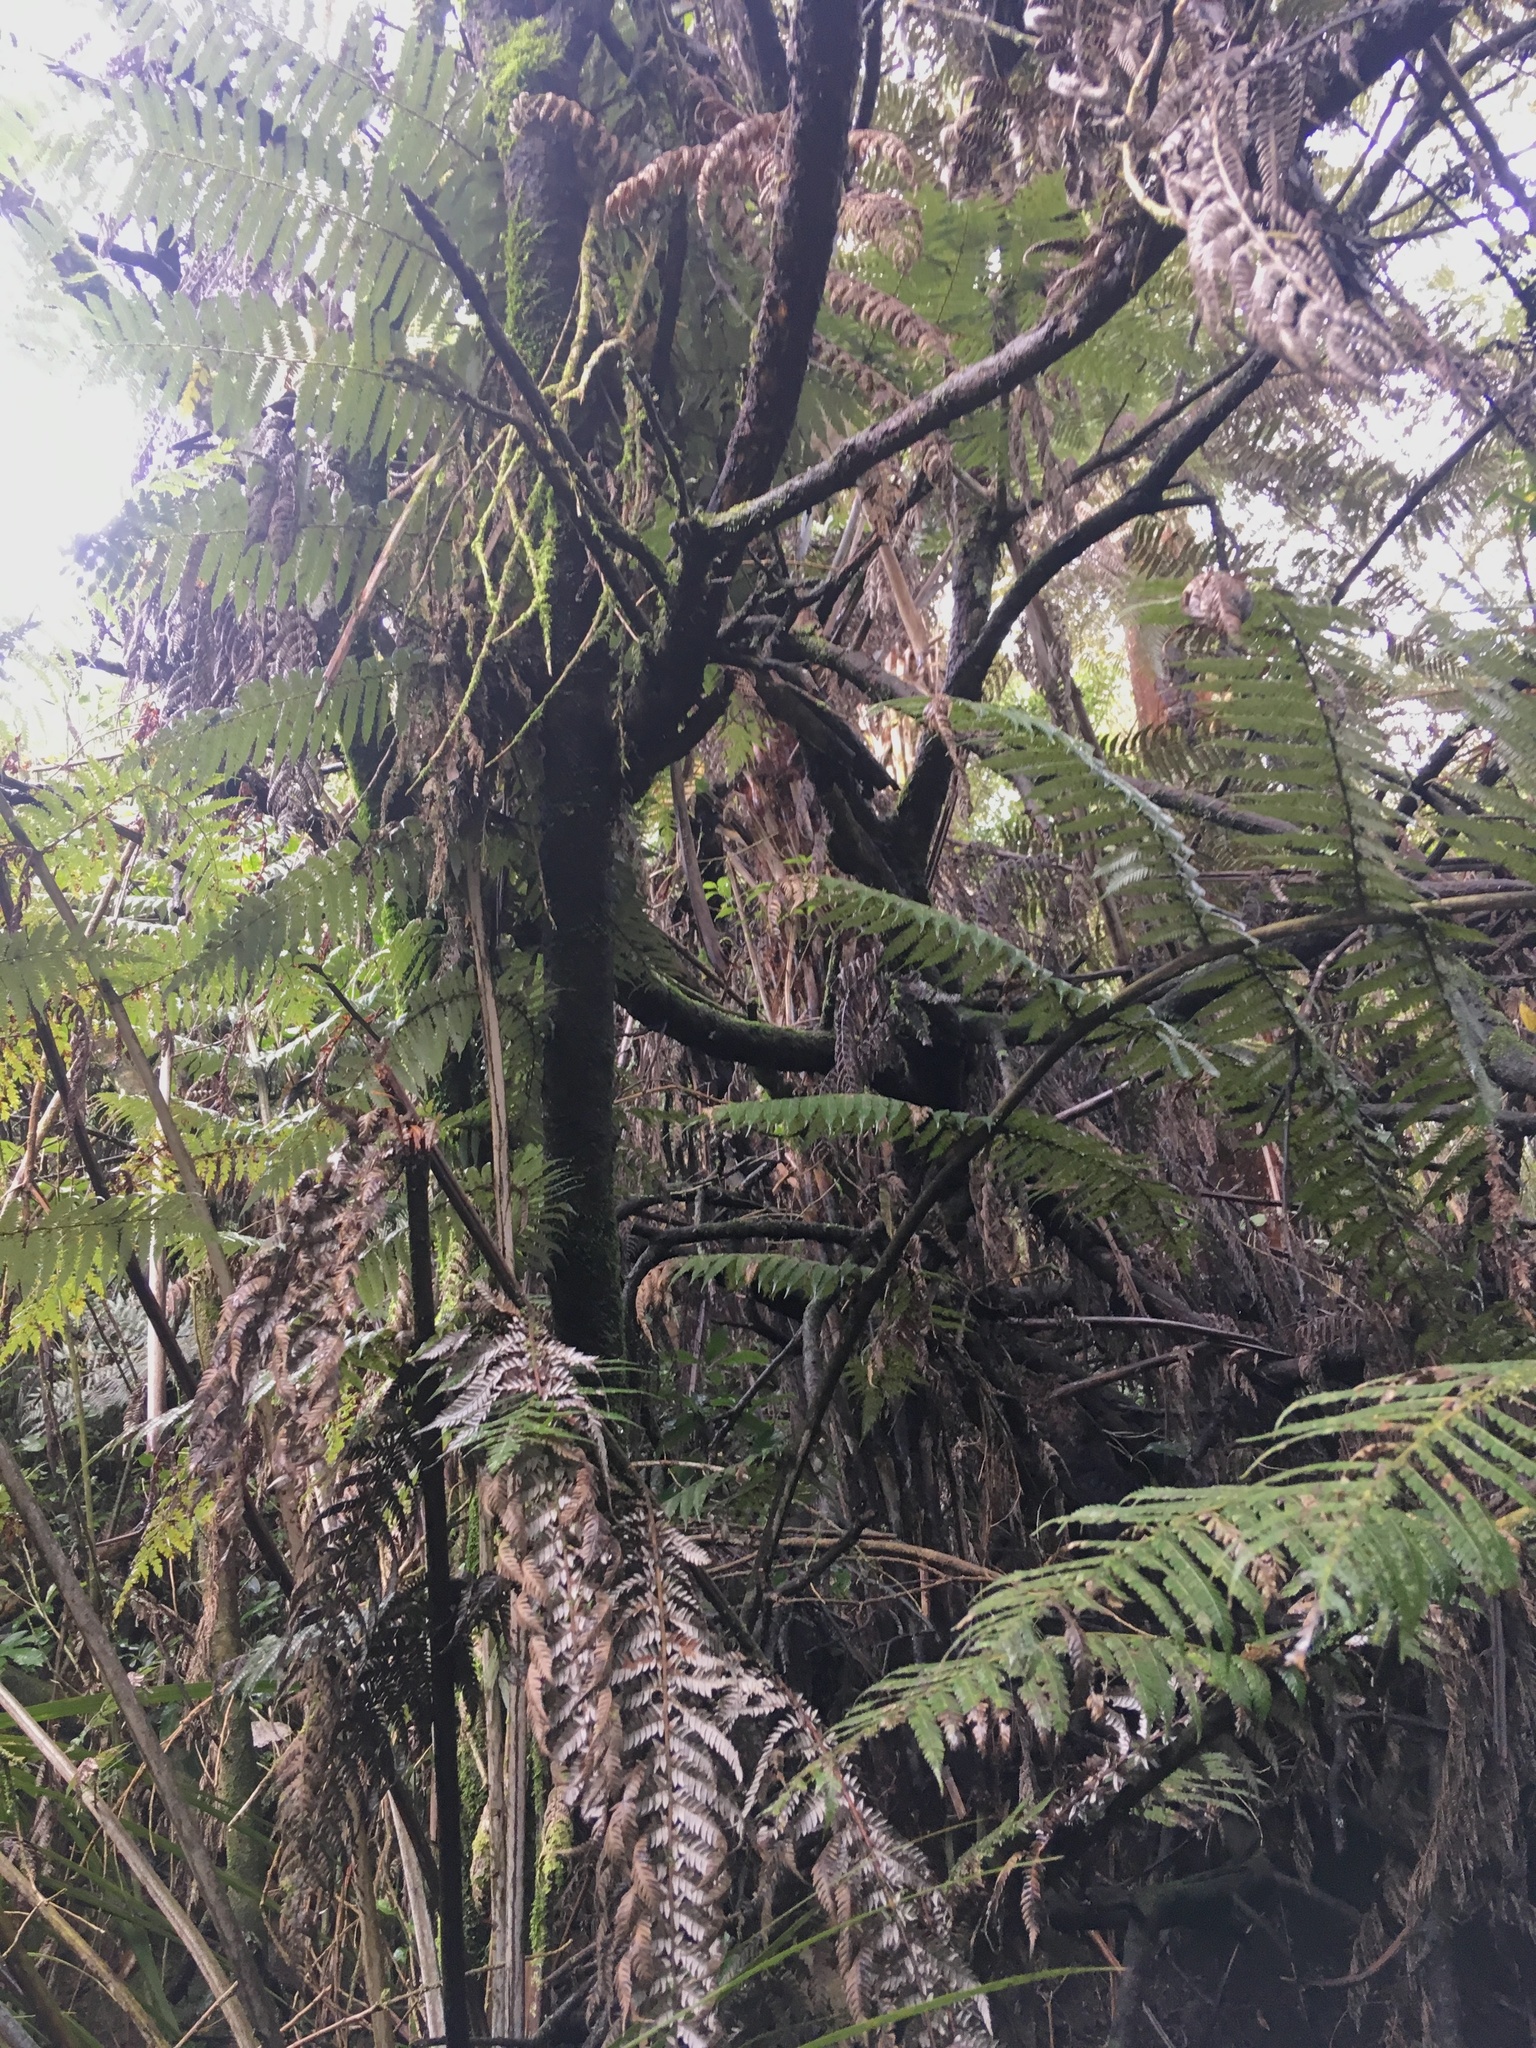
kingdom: Plantae
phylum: Tracheophyta
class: Polypodiopsida
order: Cyatheales
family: Cyatheaceae
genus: Alsophila
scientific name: Alsophila dealbata
